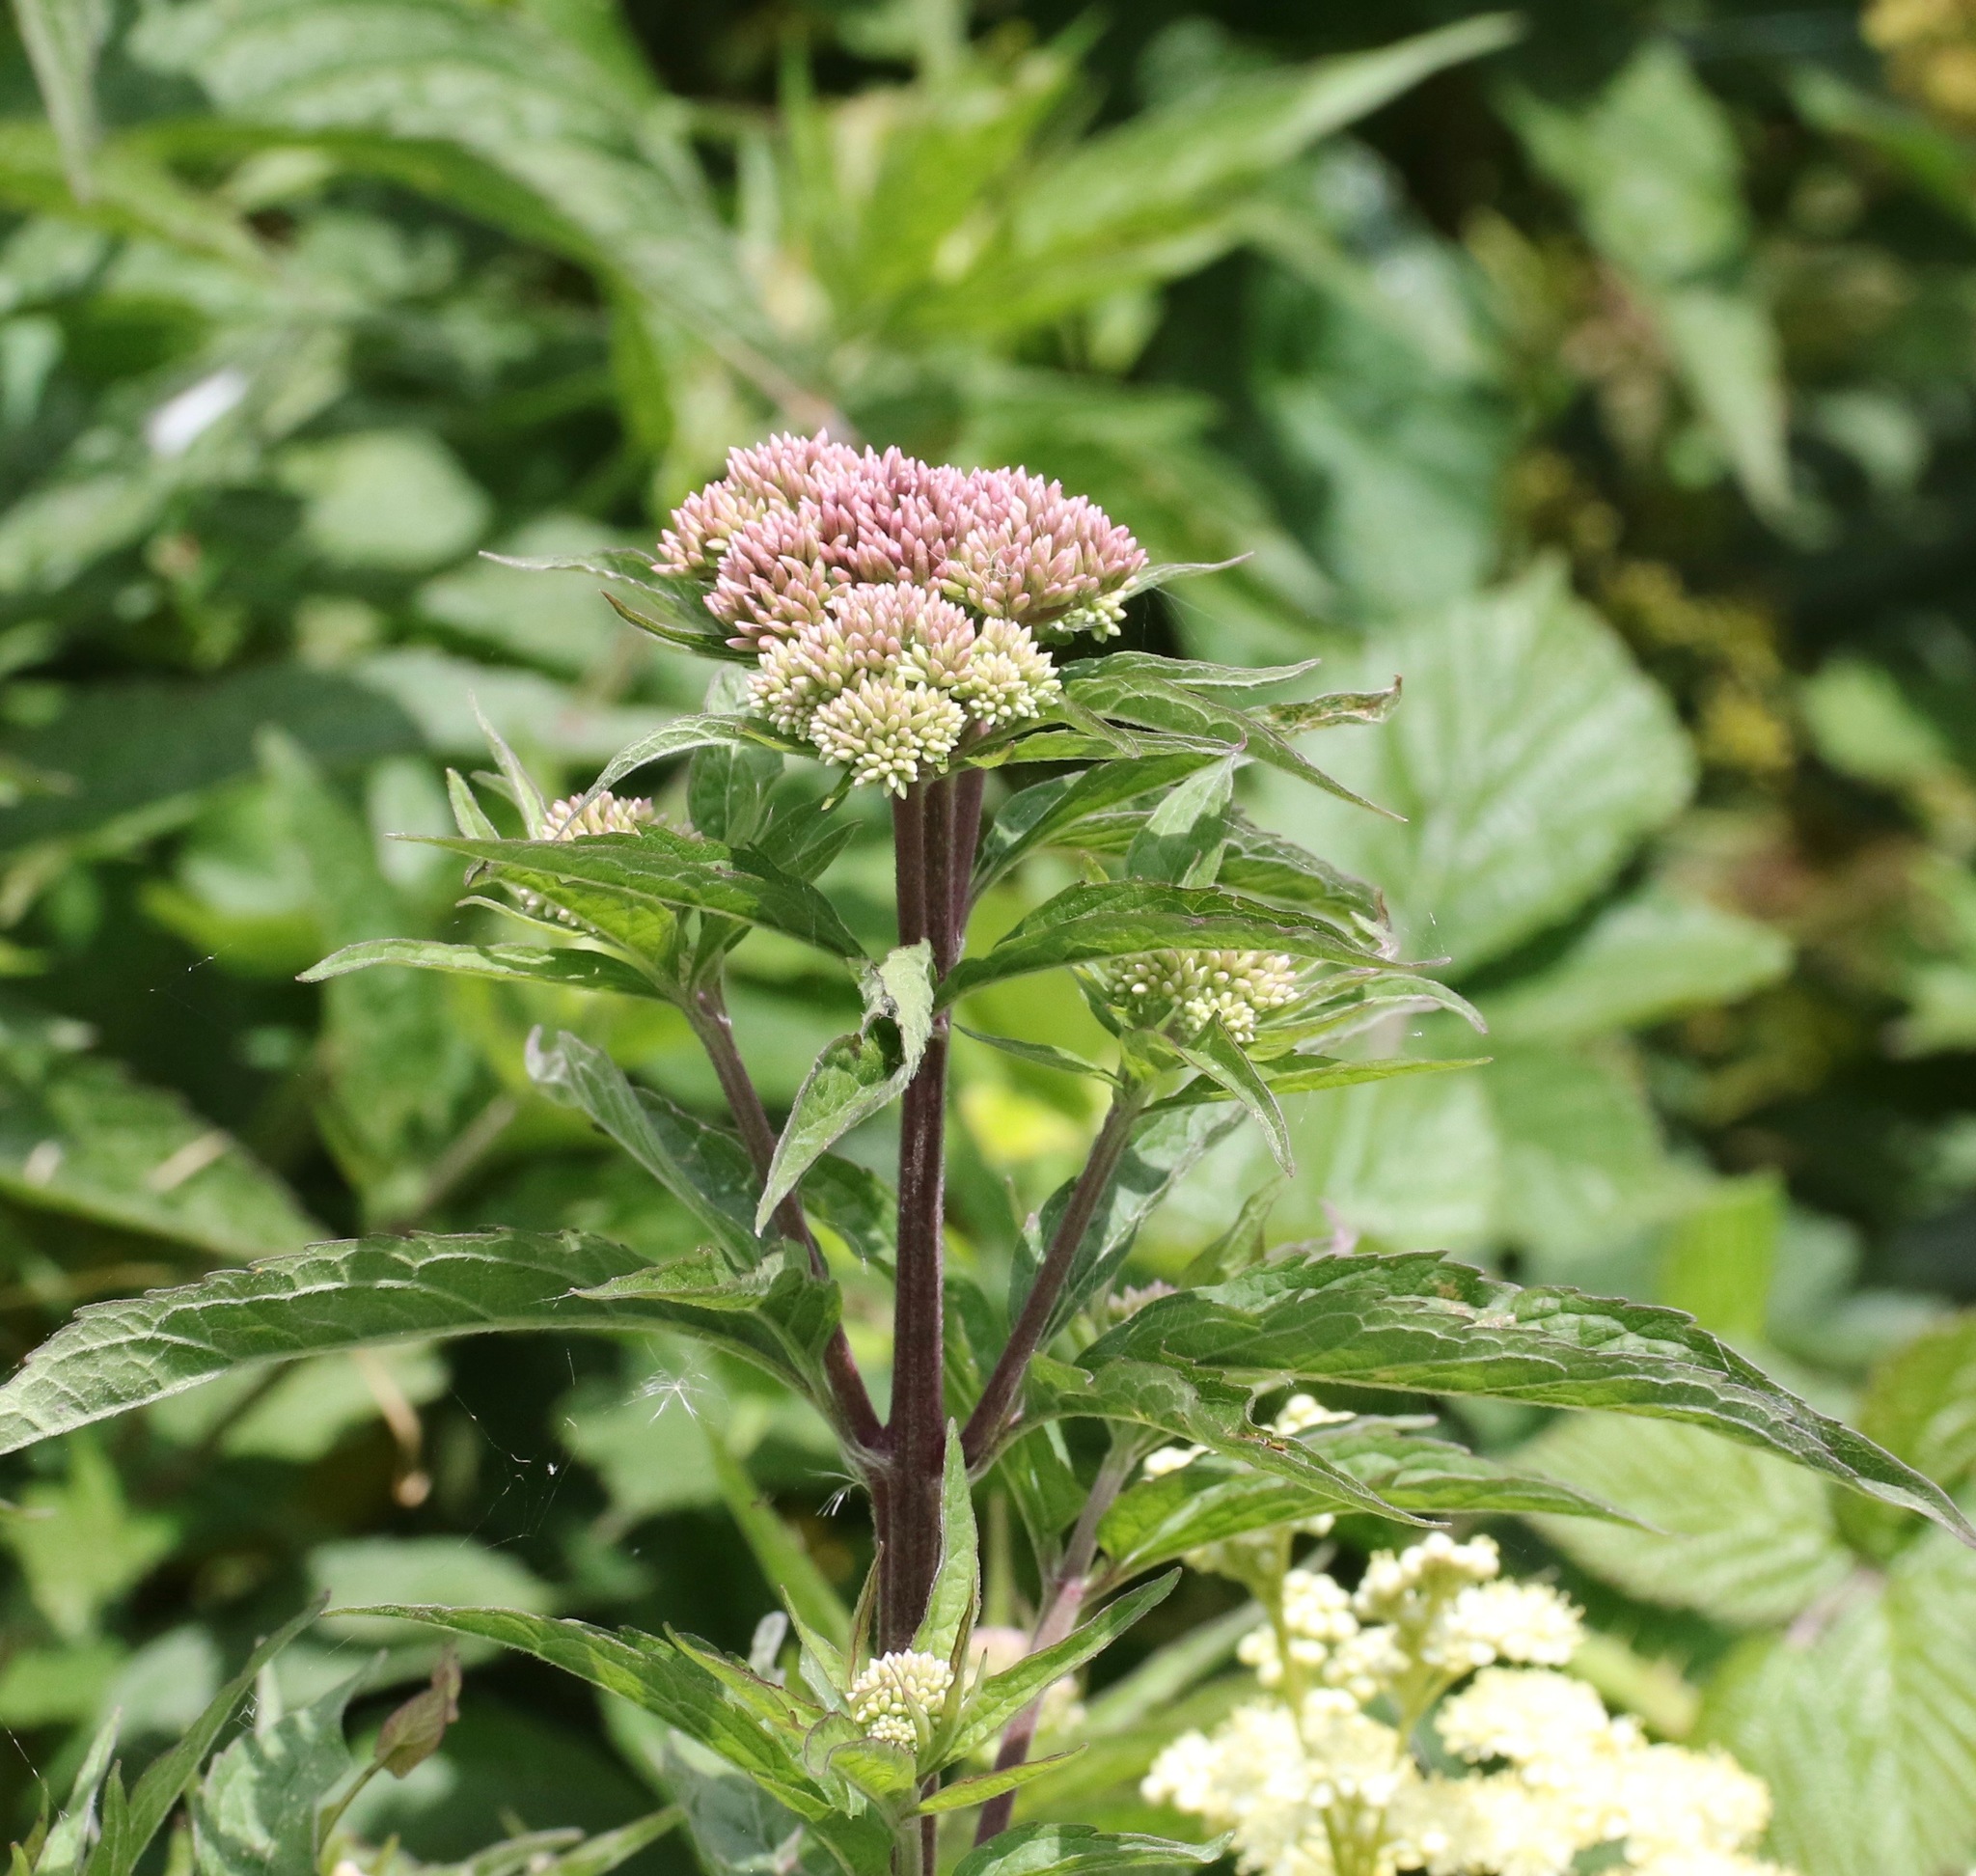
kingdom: Plantae
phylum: Tracheophyta
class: Magnoliopsida
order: Asterales
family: Asteraceae
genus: Eupatorium
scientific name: Eupatorium cannabinum
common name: Hemp-agrimony
